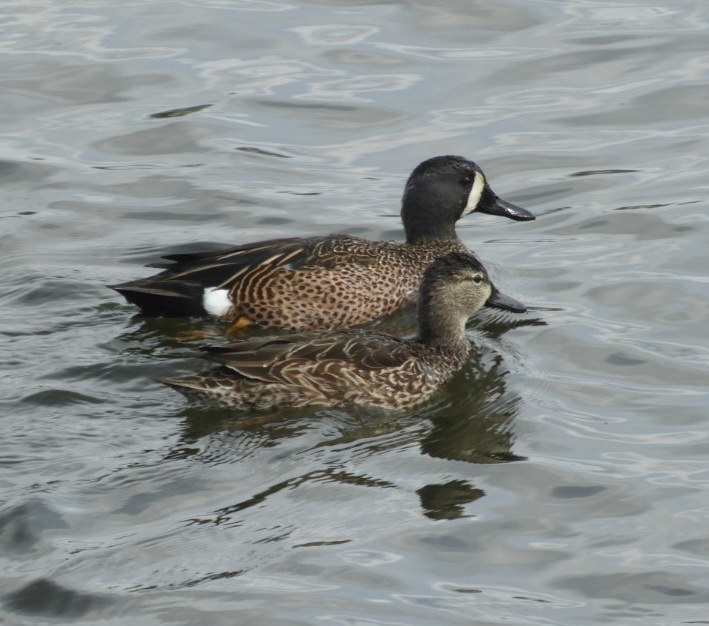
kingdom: Animalia
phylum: Chordata
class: Aves
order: Anseriformes
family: Anatidae
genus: Spatula
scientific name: Spatula discors
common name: Blue-winged teal
